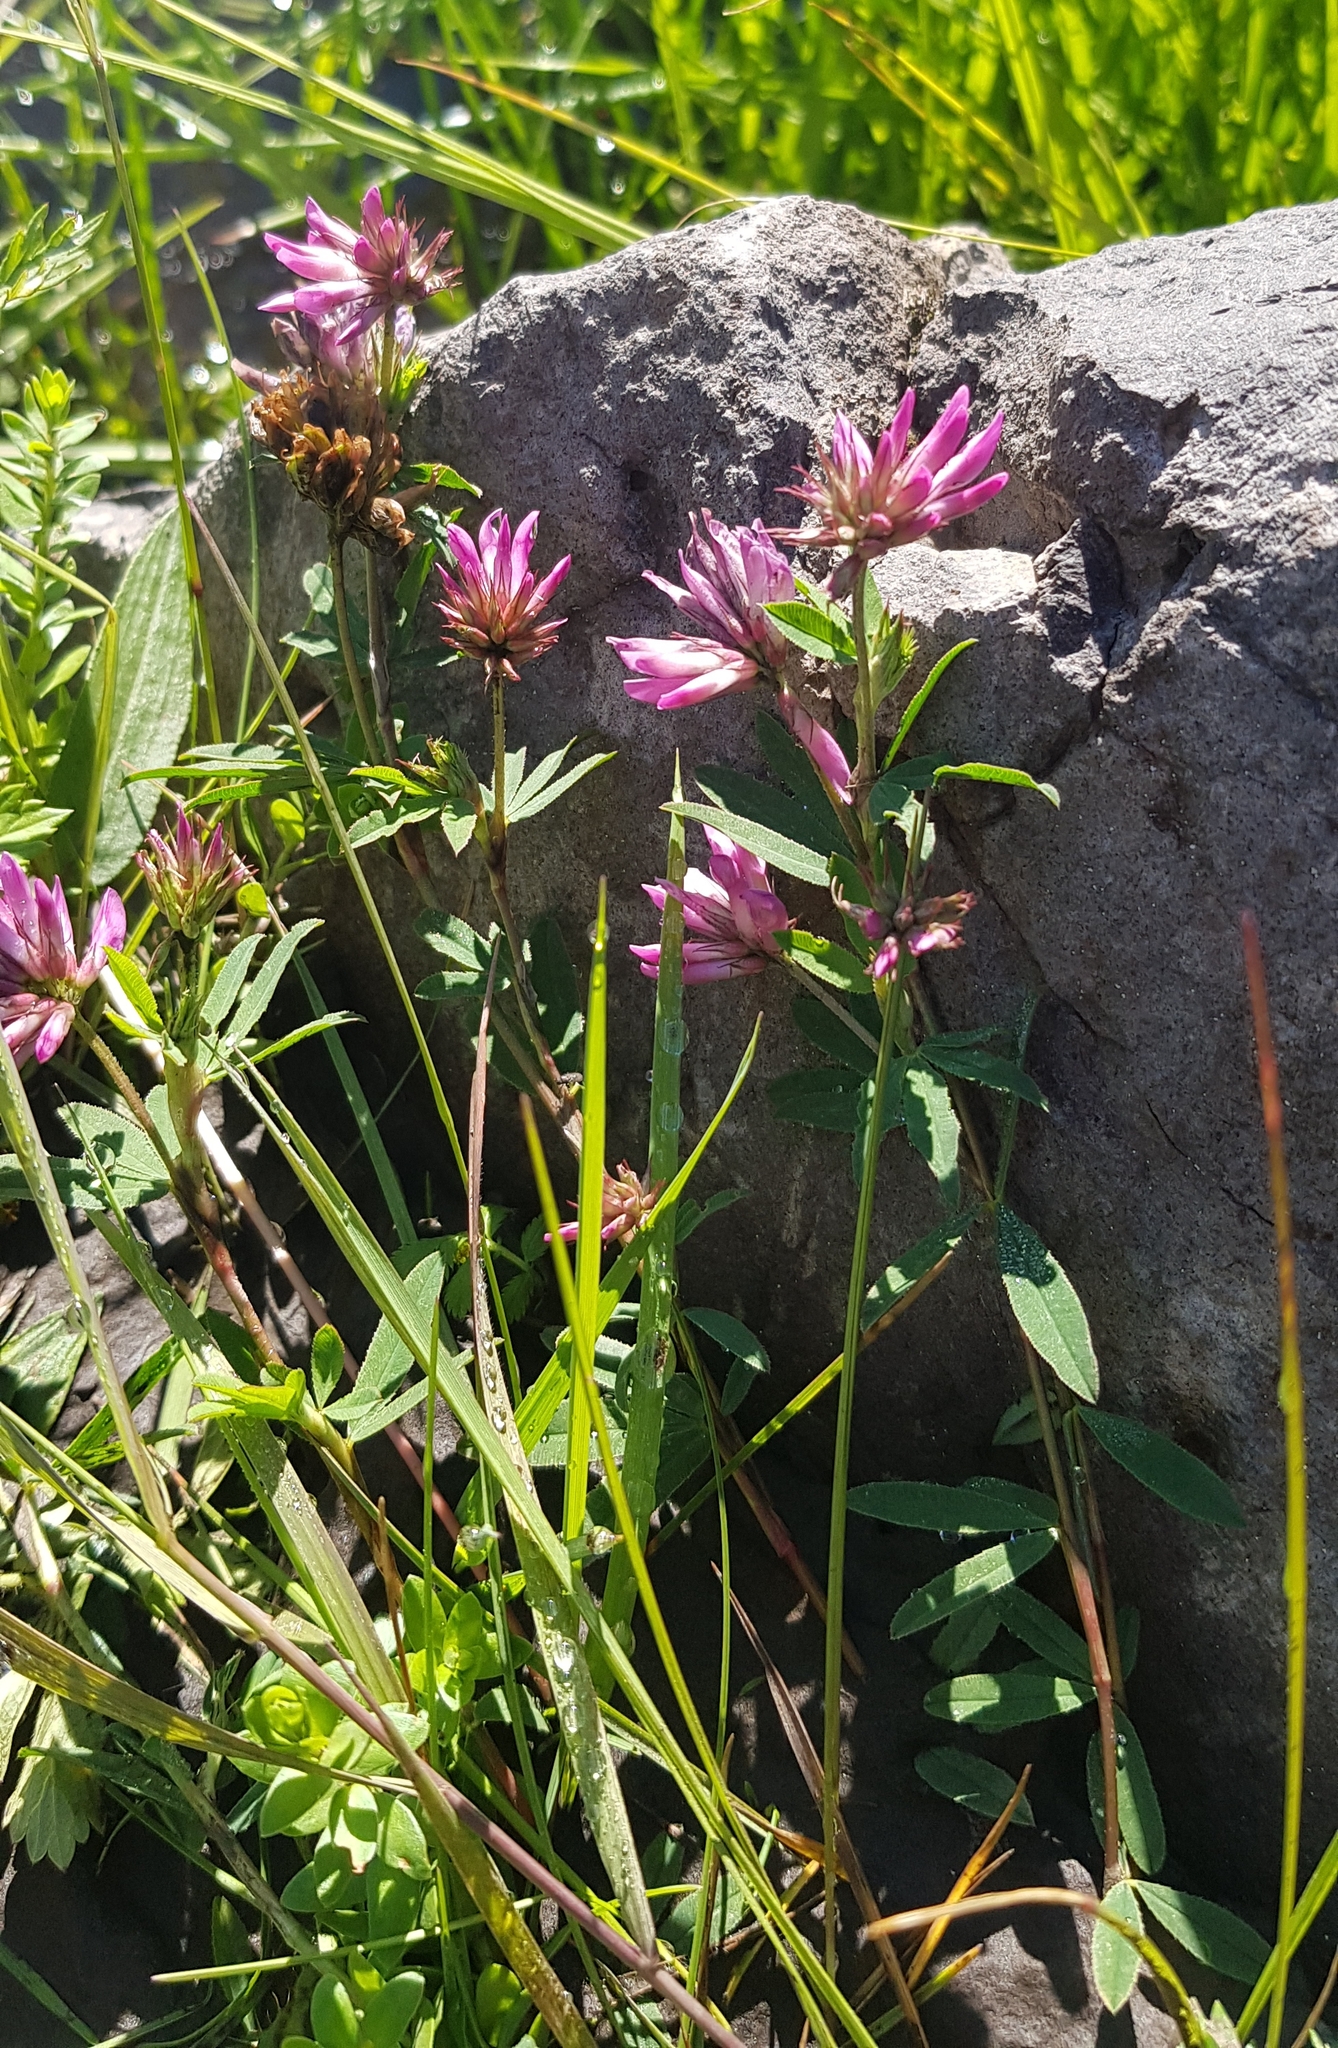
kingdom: Plantae
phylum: Tracheophyta
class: Magnoliopsida
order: Fabales
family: Fabaceae
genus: Trifolium
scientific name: Trifolium lupinaster
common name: Lupine clover
